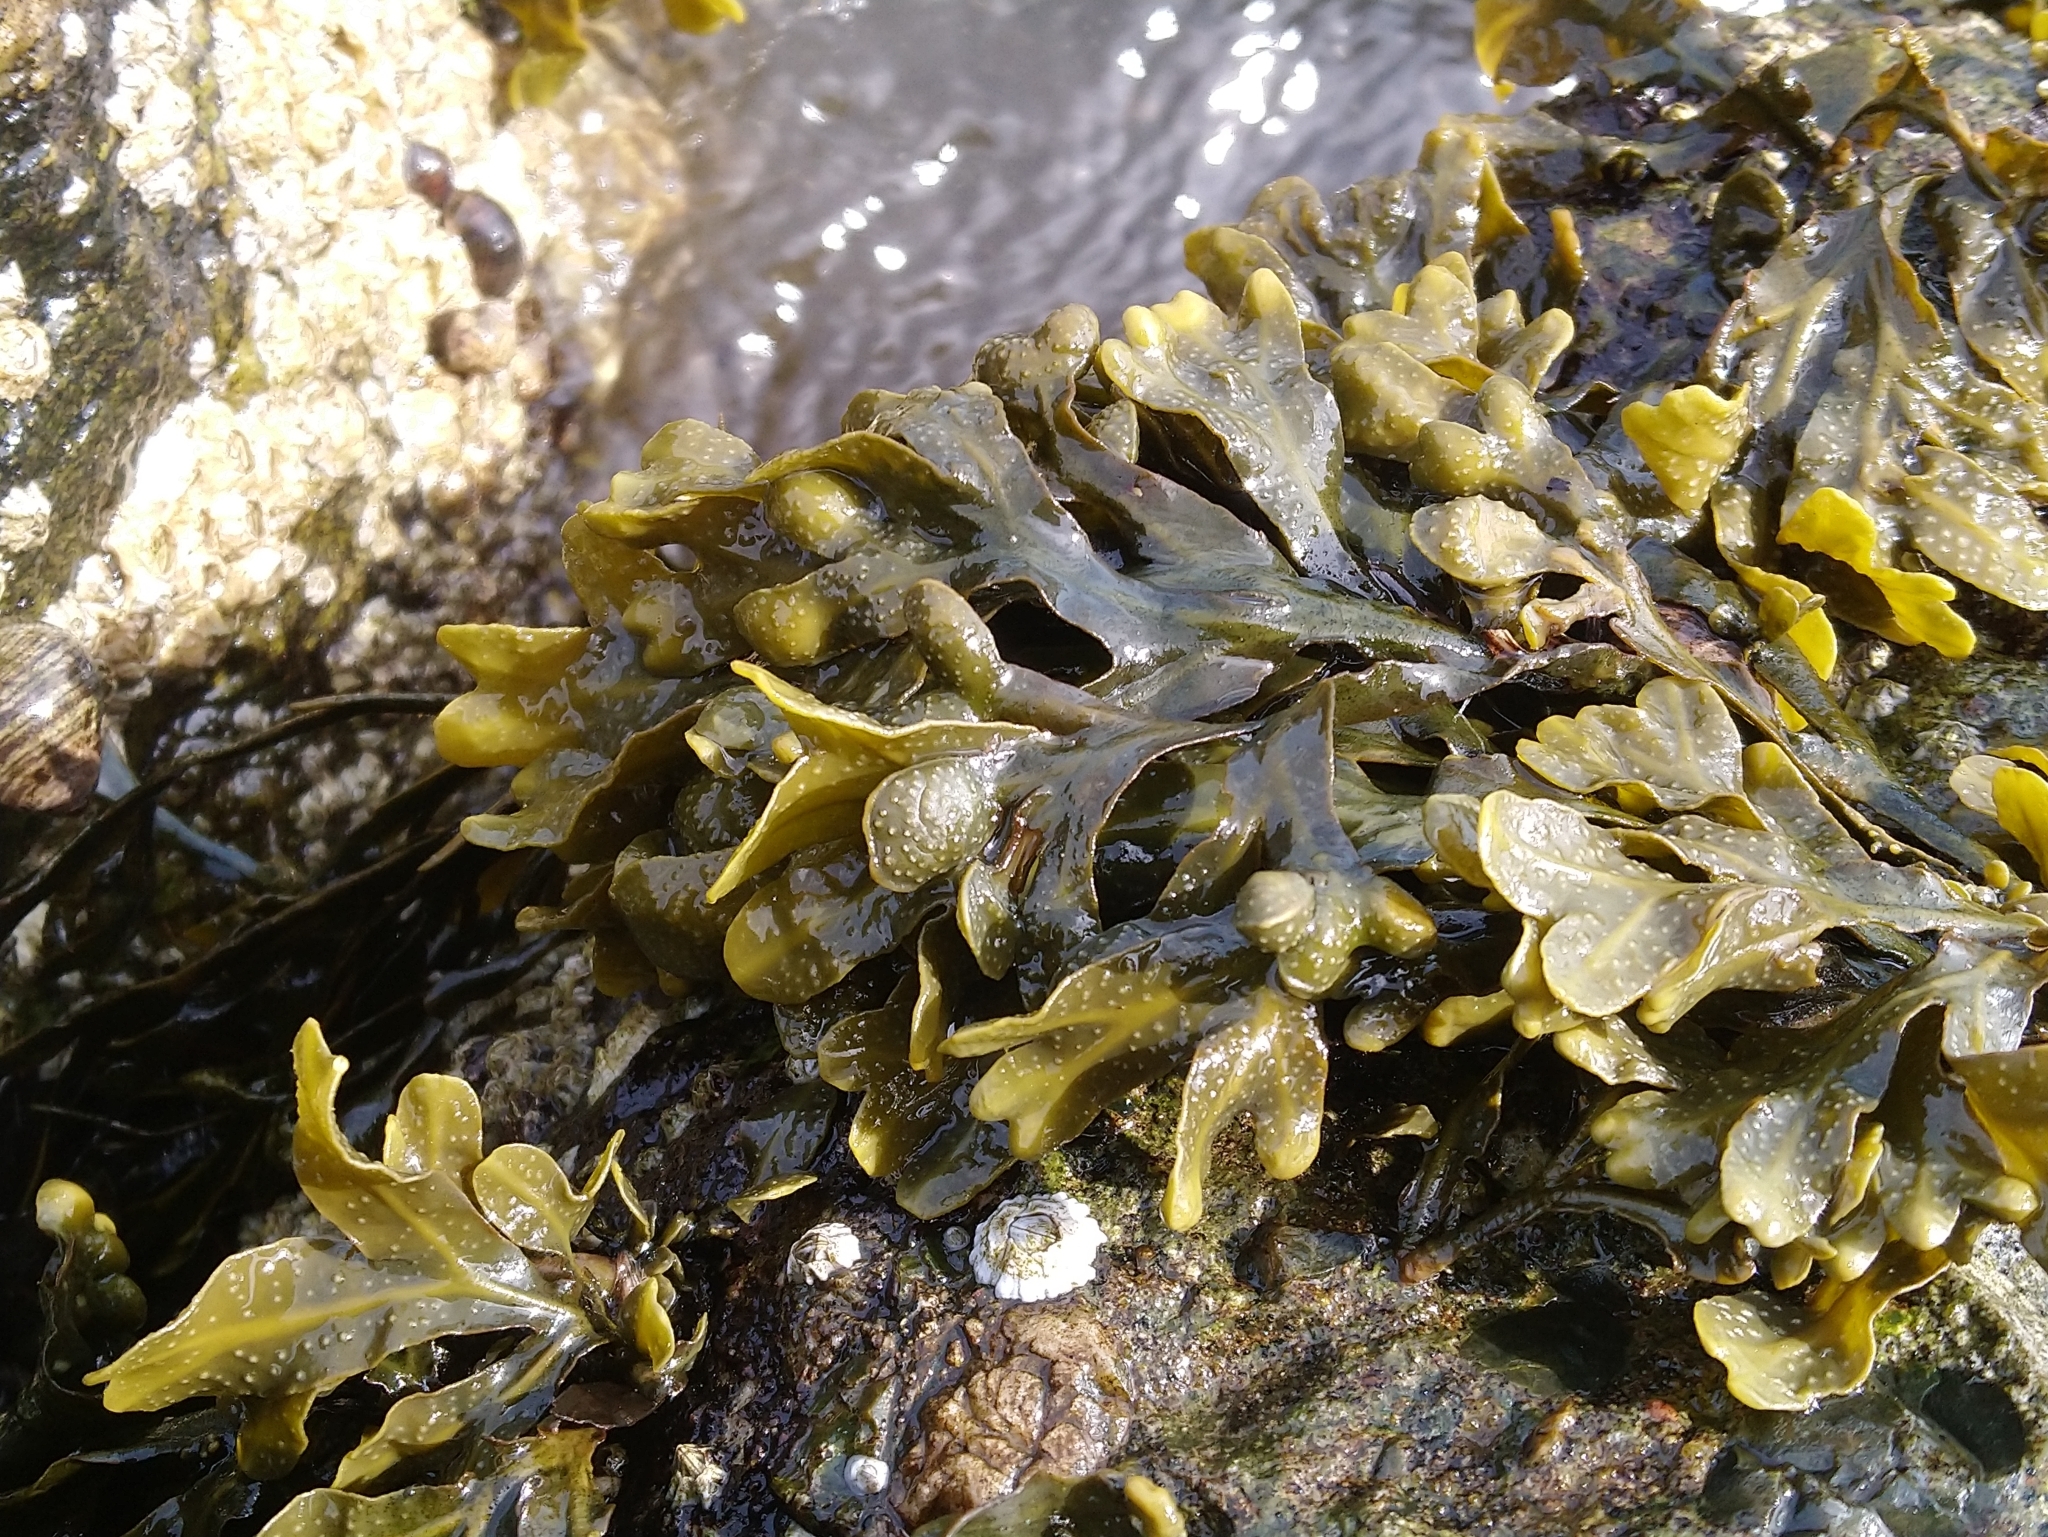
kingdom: Chromista
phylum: Ochrophyta
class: Phaeophyceae
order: Fucales
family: Fucaceae
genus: Fucus
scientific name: Fucus vesiculosus
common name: Bladder wrack
